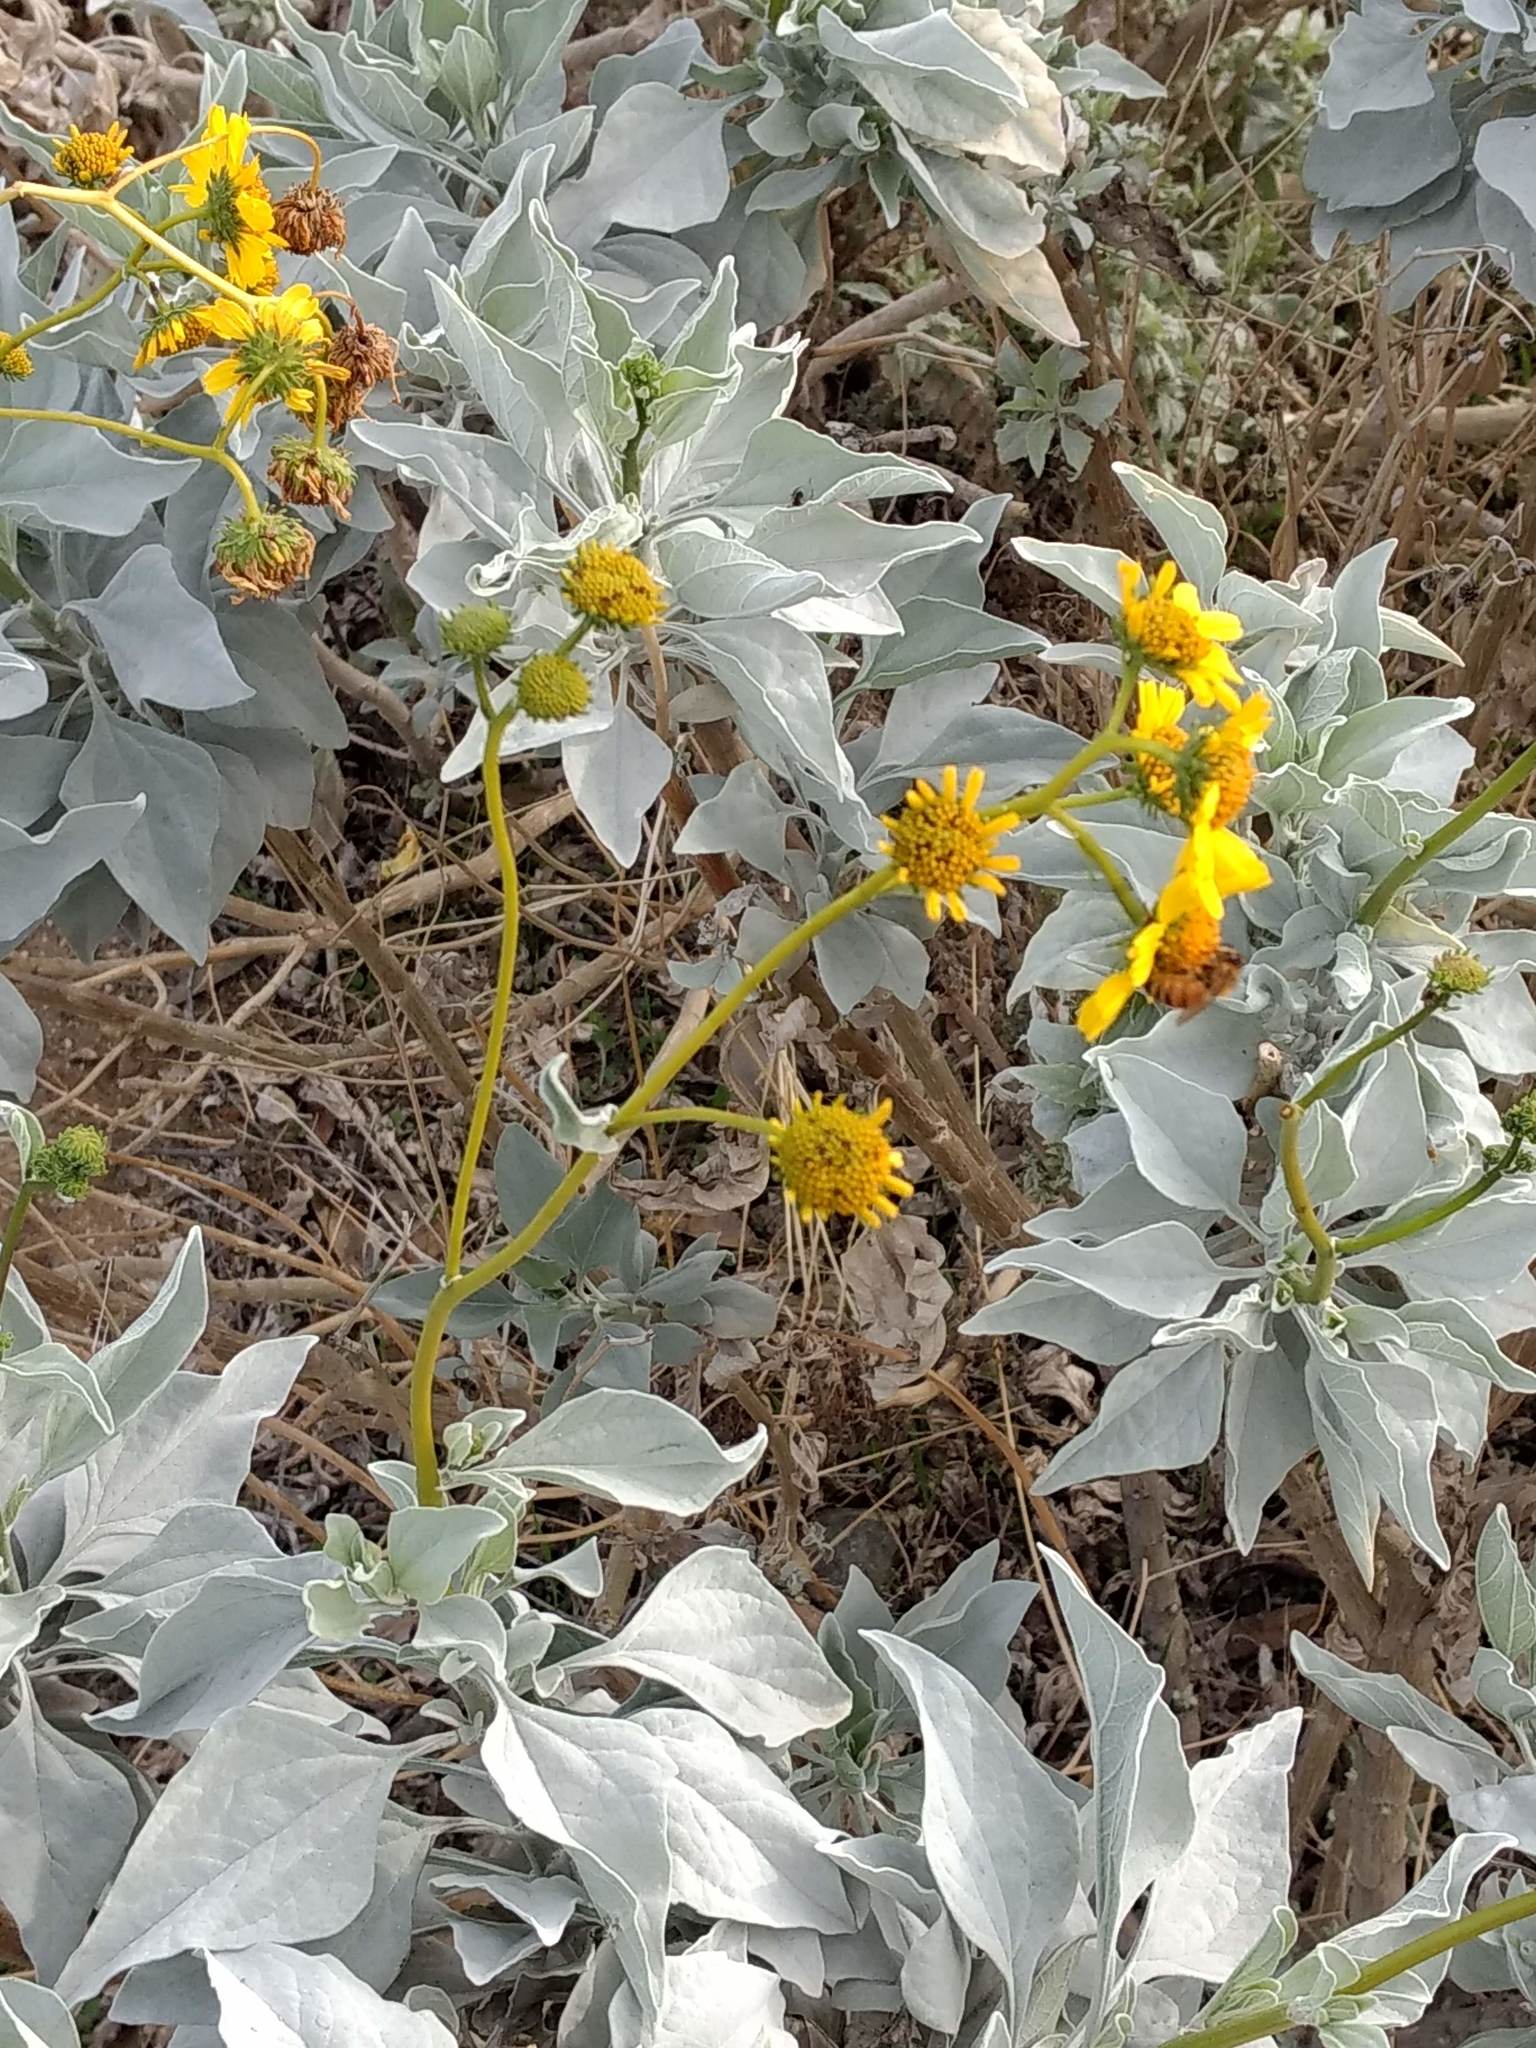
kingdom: Plantae
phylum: Tracheophyta
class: Magnoliopsida
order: Asterales
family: Asteraceae
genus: Encelia
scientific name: Encelia farinosa
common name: Brittlebush
